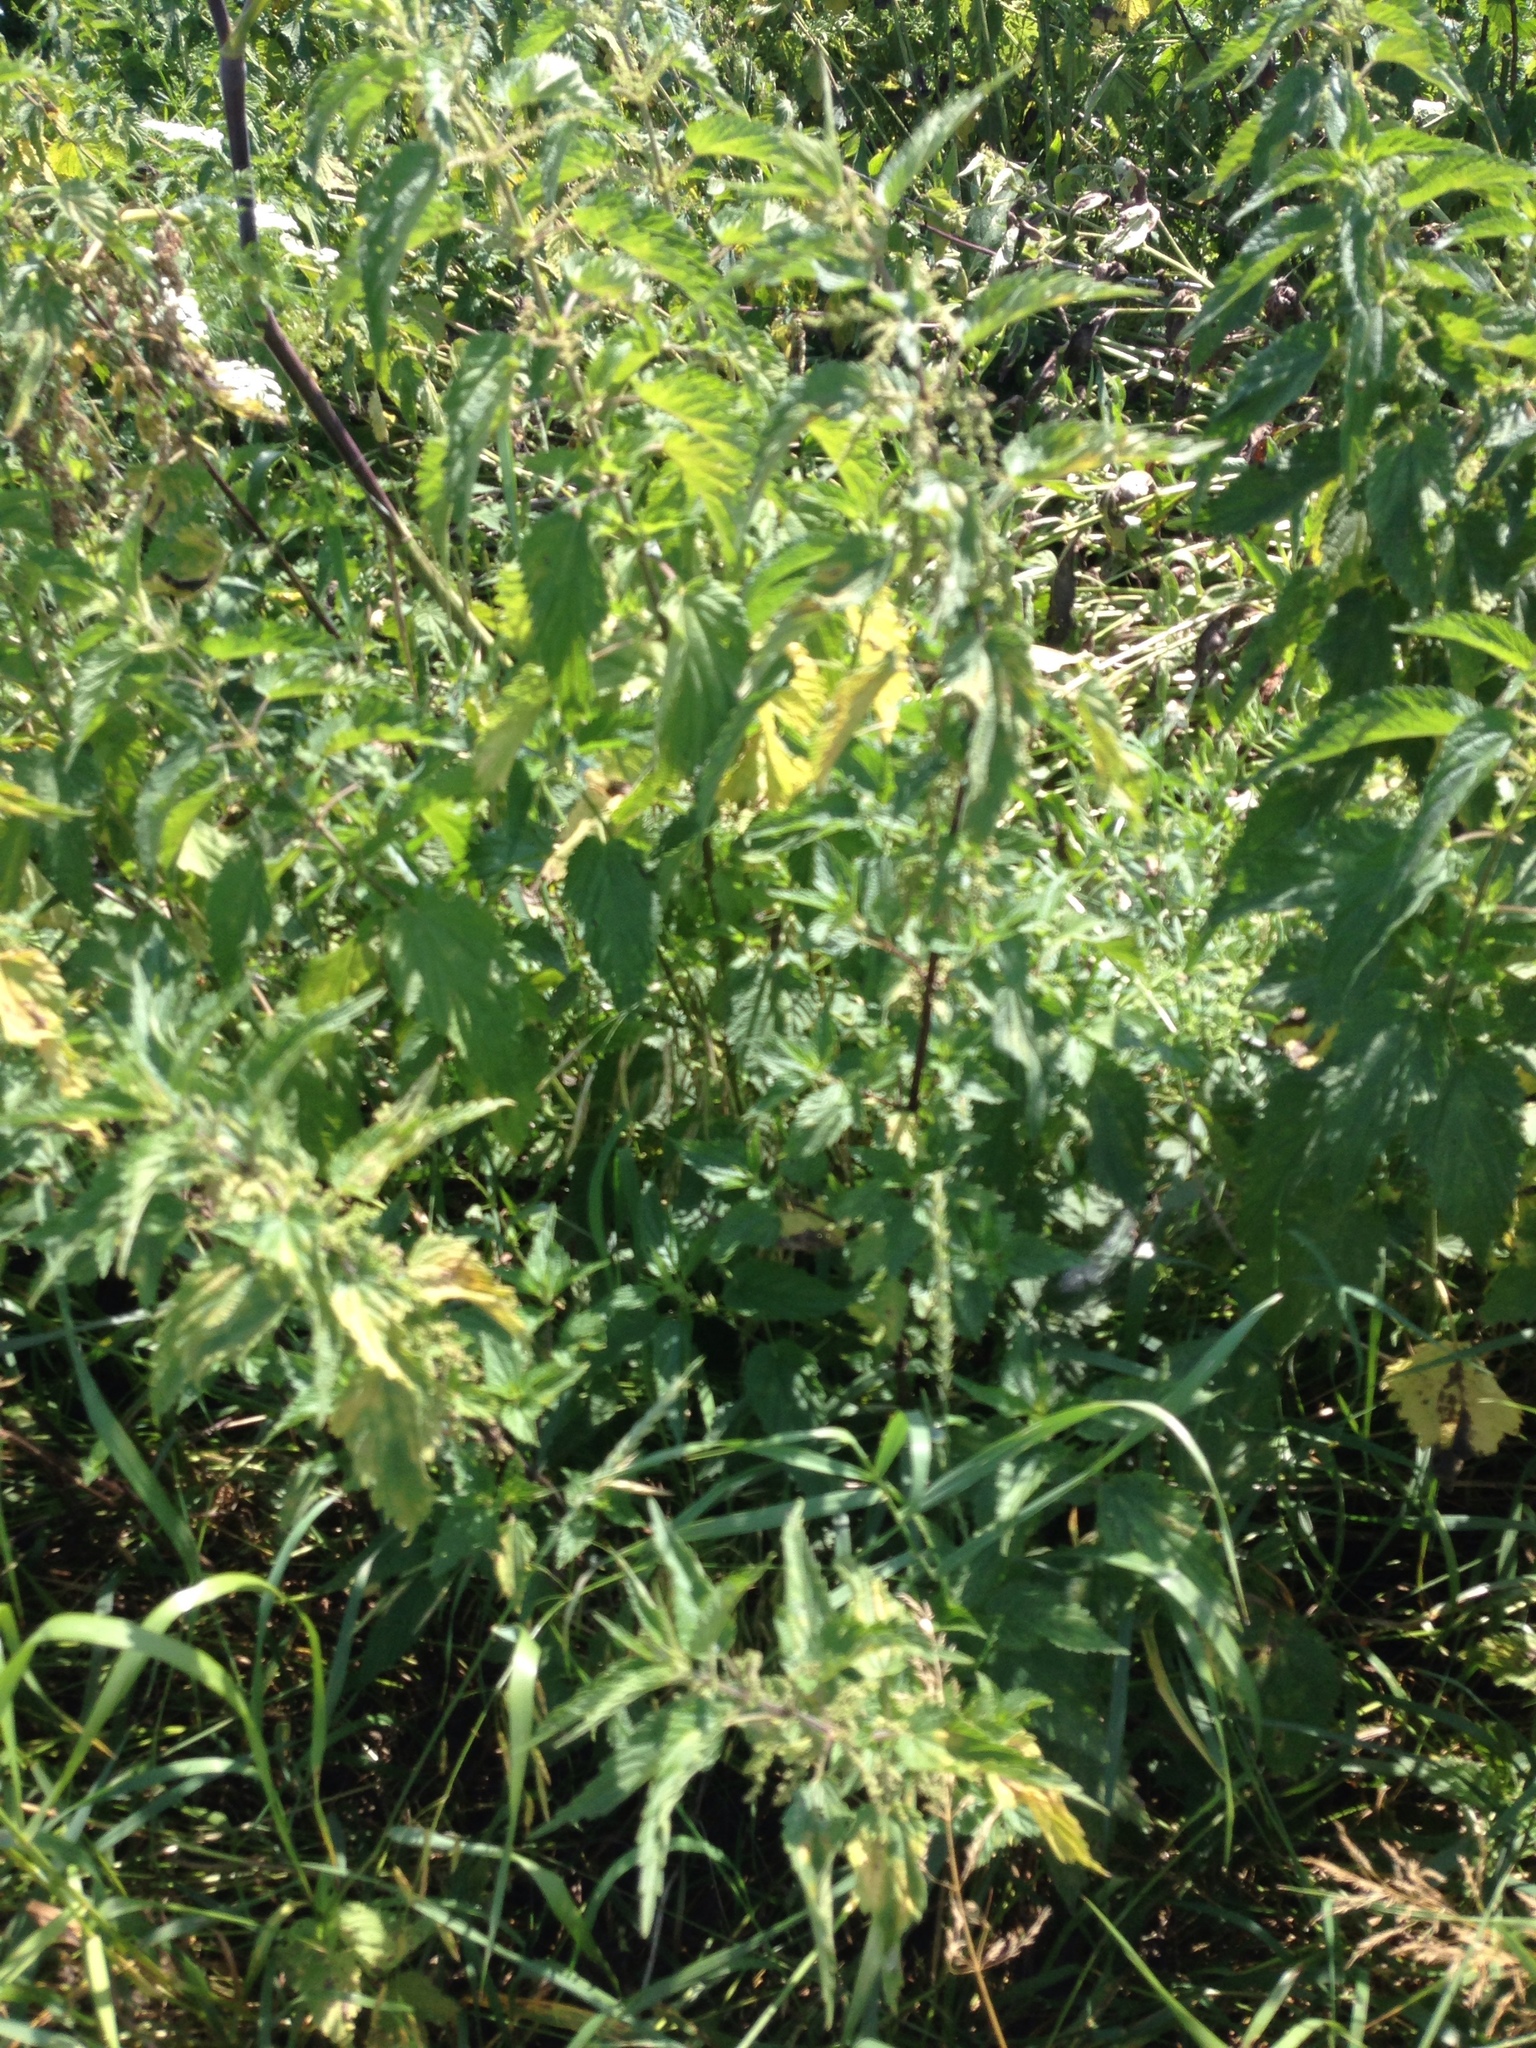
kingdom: Plantae
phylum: Tracheophyta
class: Magnoliopsida
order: Rosales
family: Urticaceae
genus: Urtica
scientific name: Urtica dioica
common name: Common nettle
